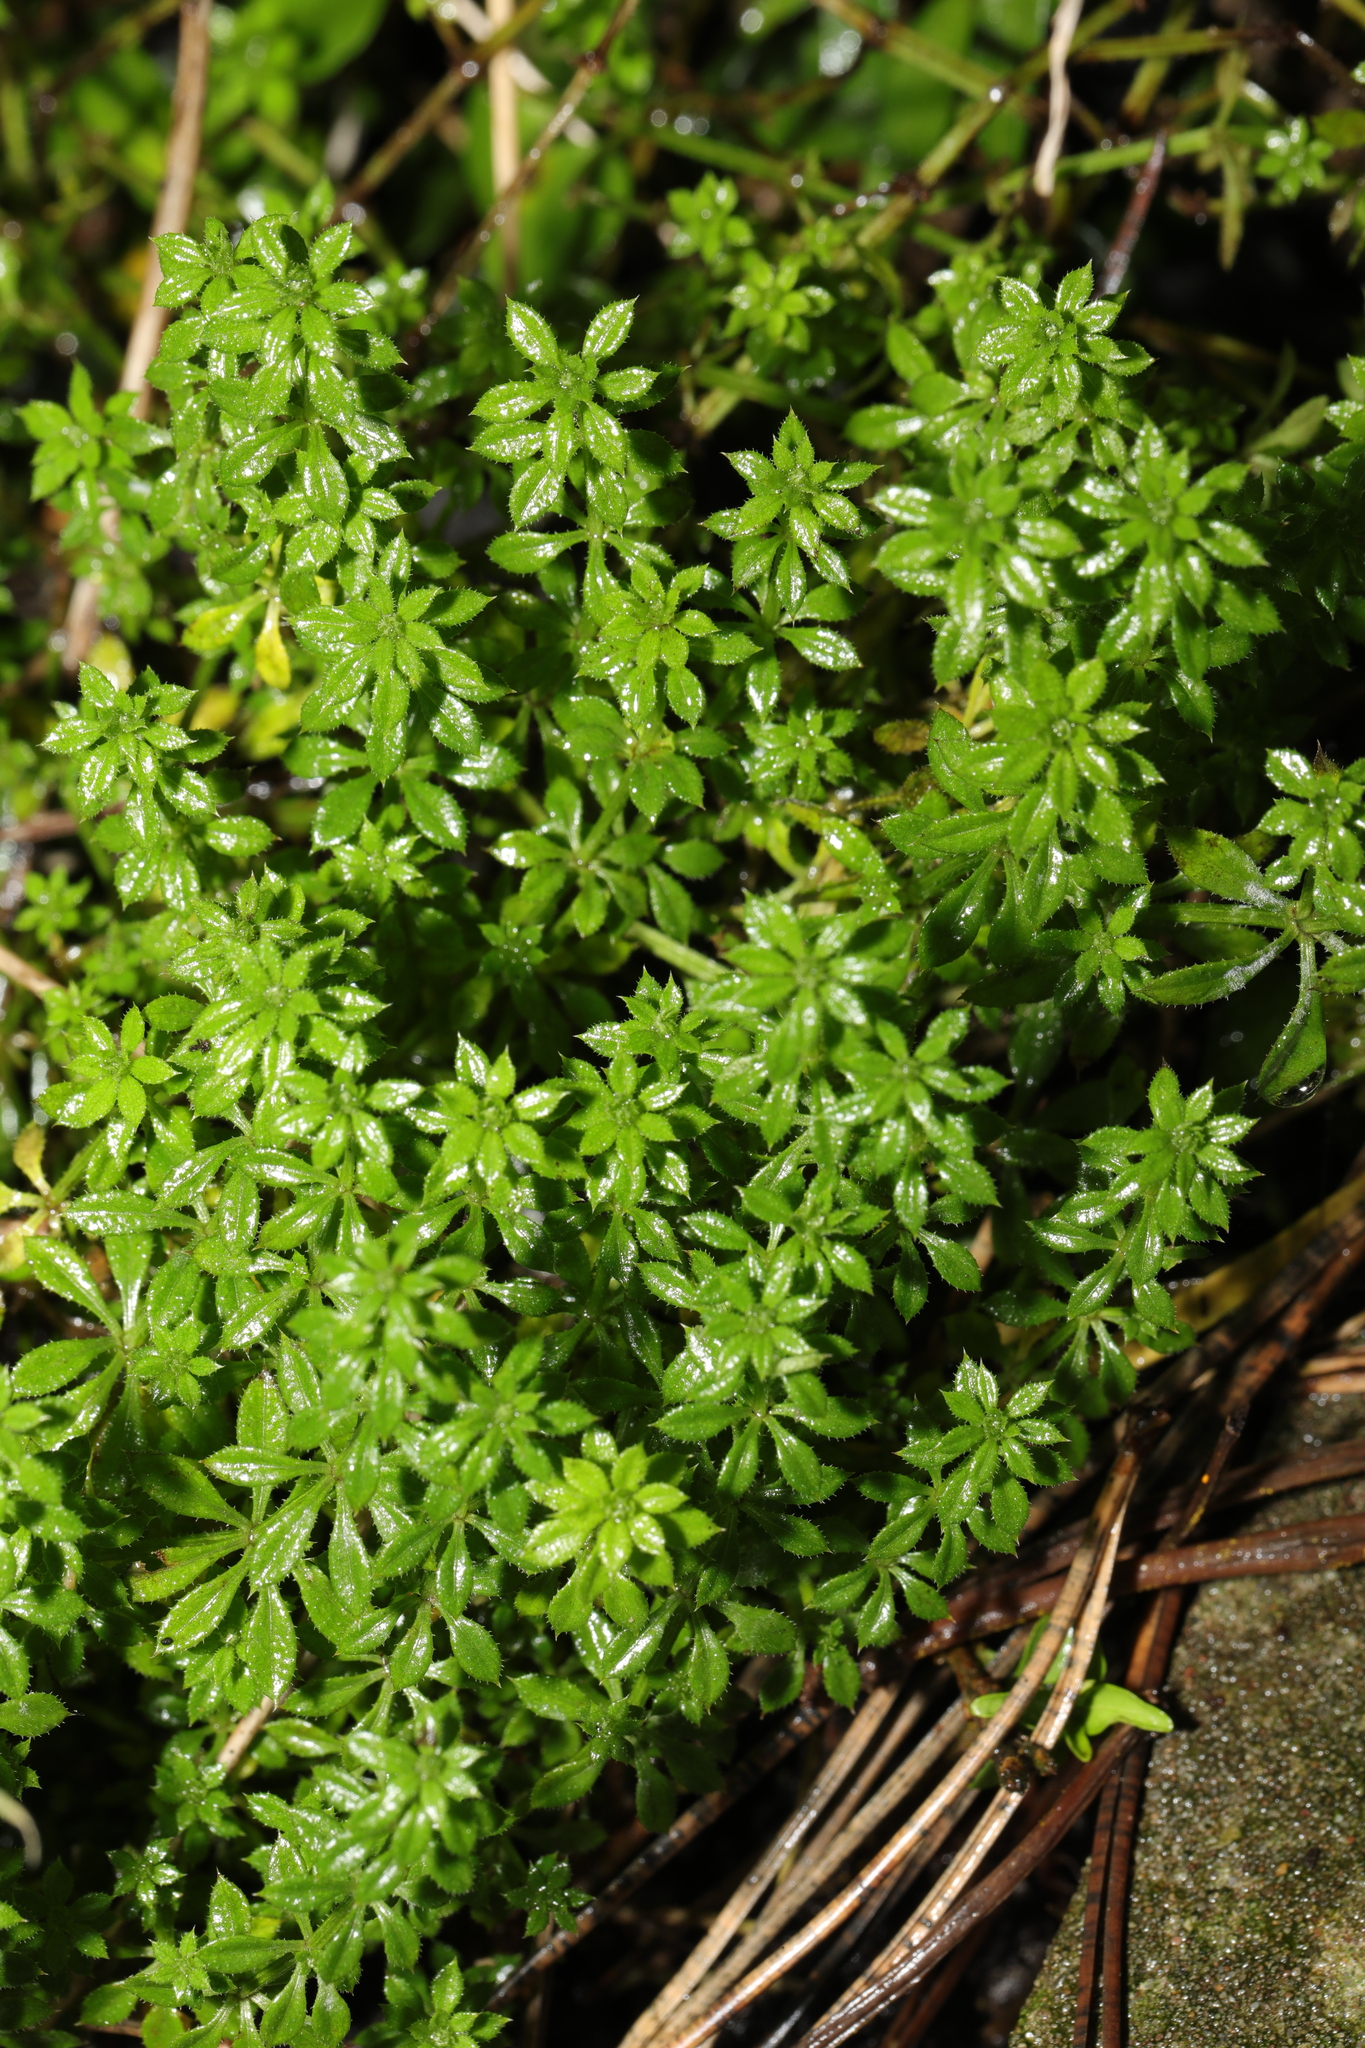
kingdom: Plantae
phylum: Tracheophyta
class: Magnoliopsida
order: Gentianales
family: Rubiaceae
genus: Galium
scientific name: Galium aparine
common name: Cleavers
